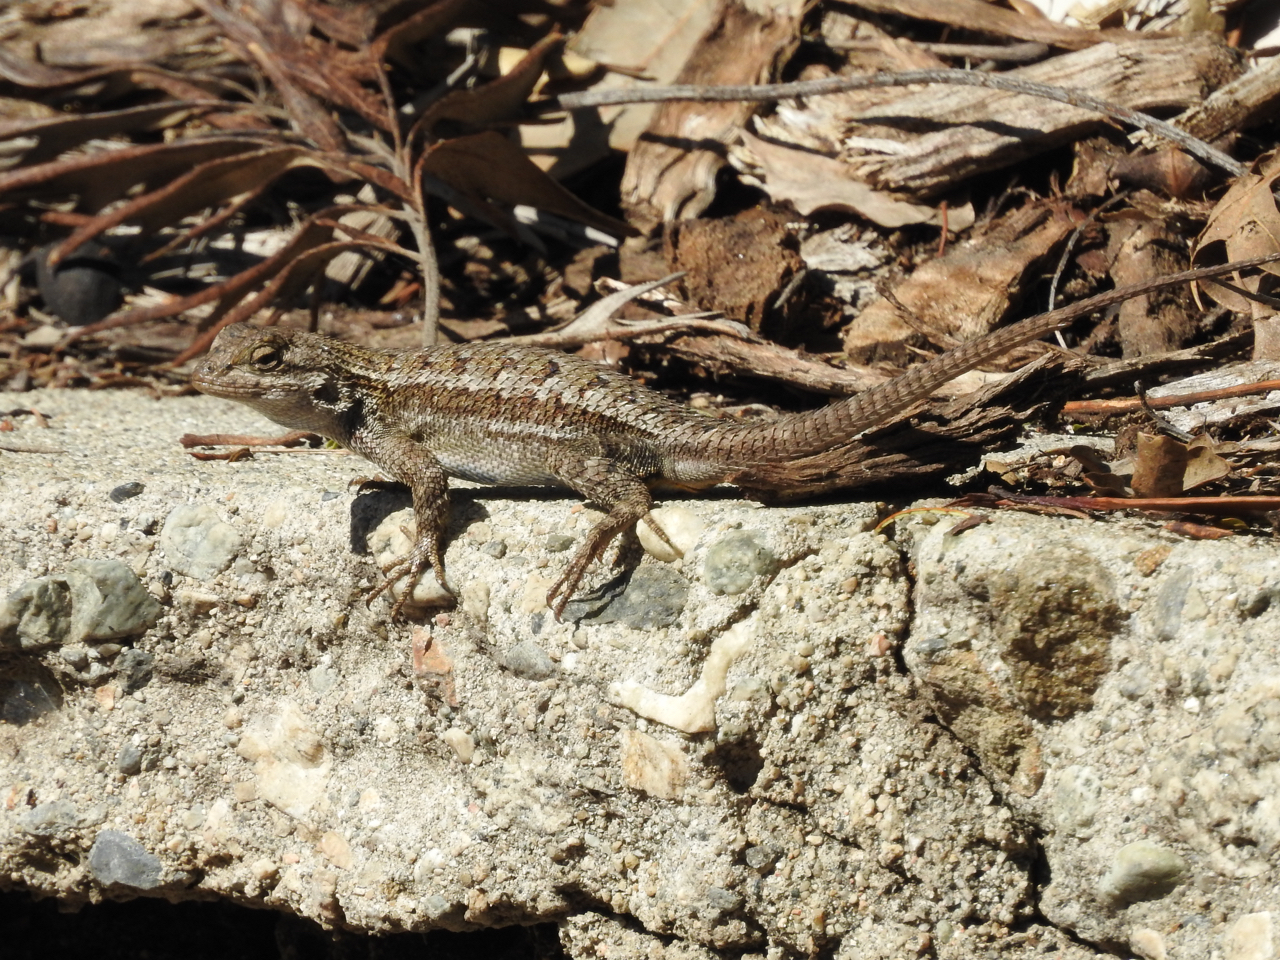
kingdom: Animalia
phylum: Chordata
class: Squamata
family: Phrynosomatidae
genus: Sceloporus
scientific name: Sceloporus occidentalis
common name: Western fence lizard
